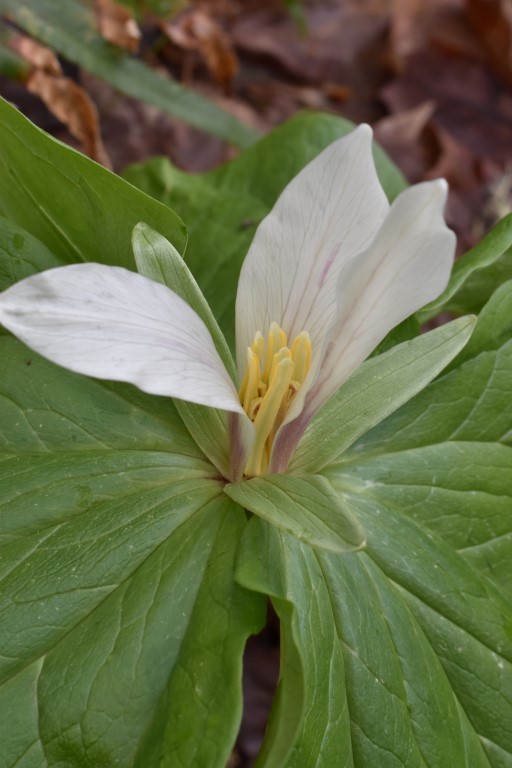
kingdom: Plantae
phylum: Tracheophyta
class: Liliopsida
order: Liliales
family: Melanthiaceae
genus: Trillium
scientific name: Trillium albidum
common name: Freeman's trillium
